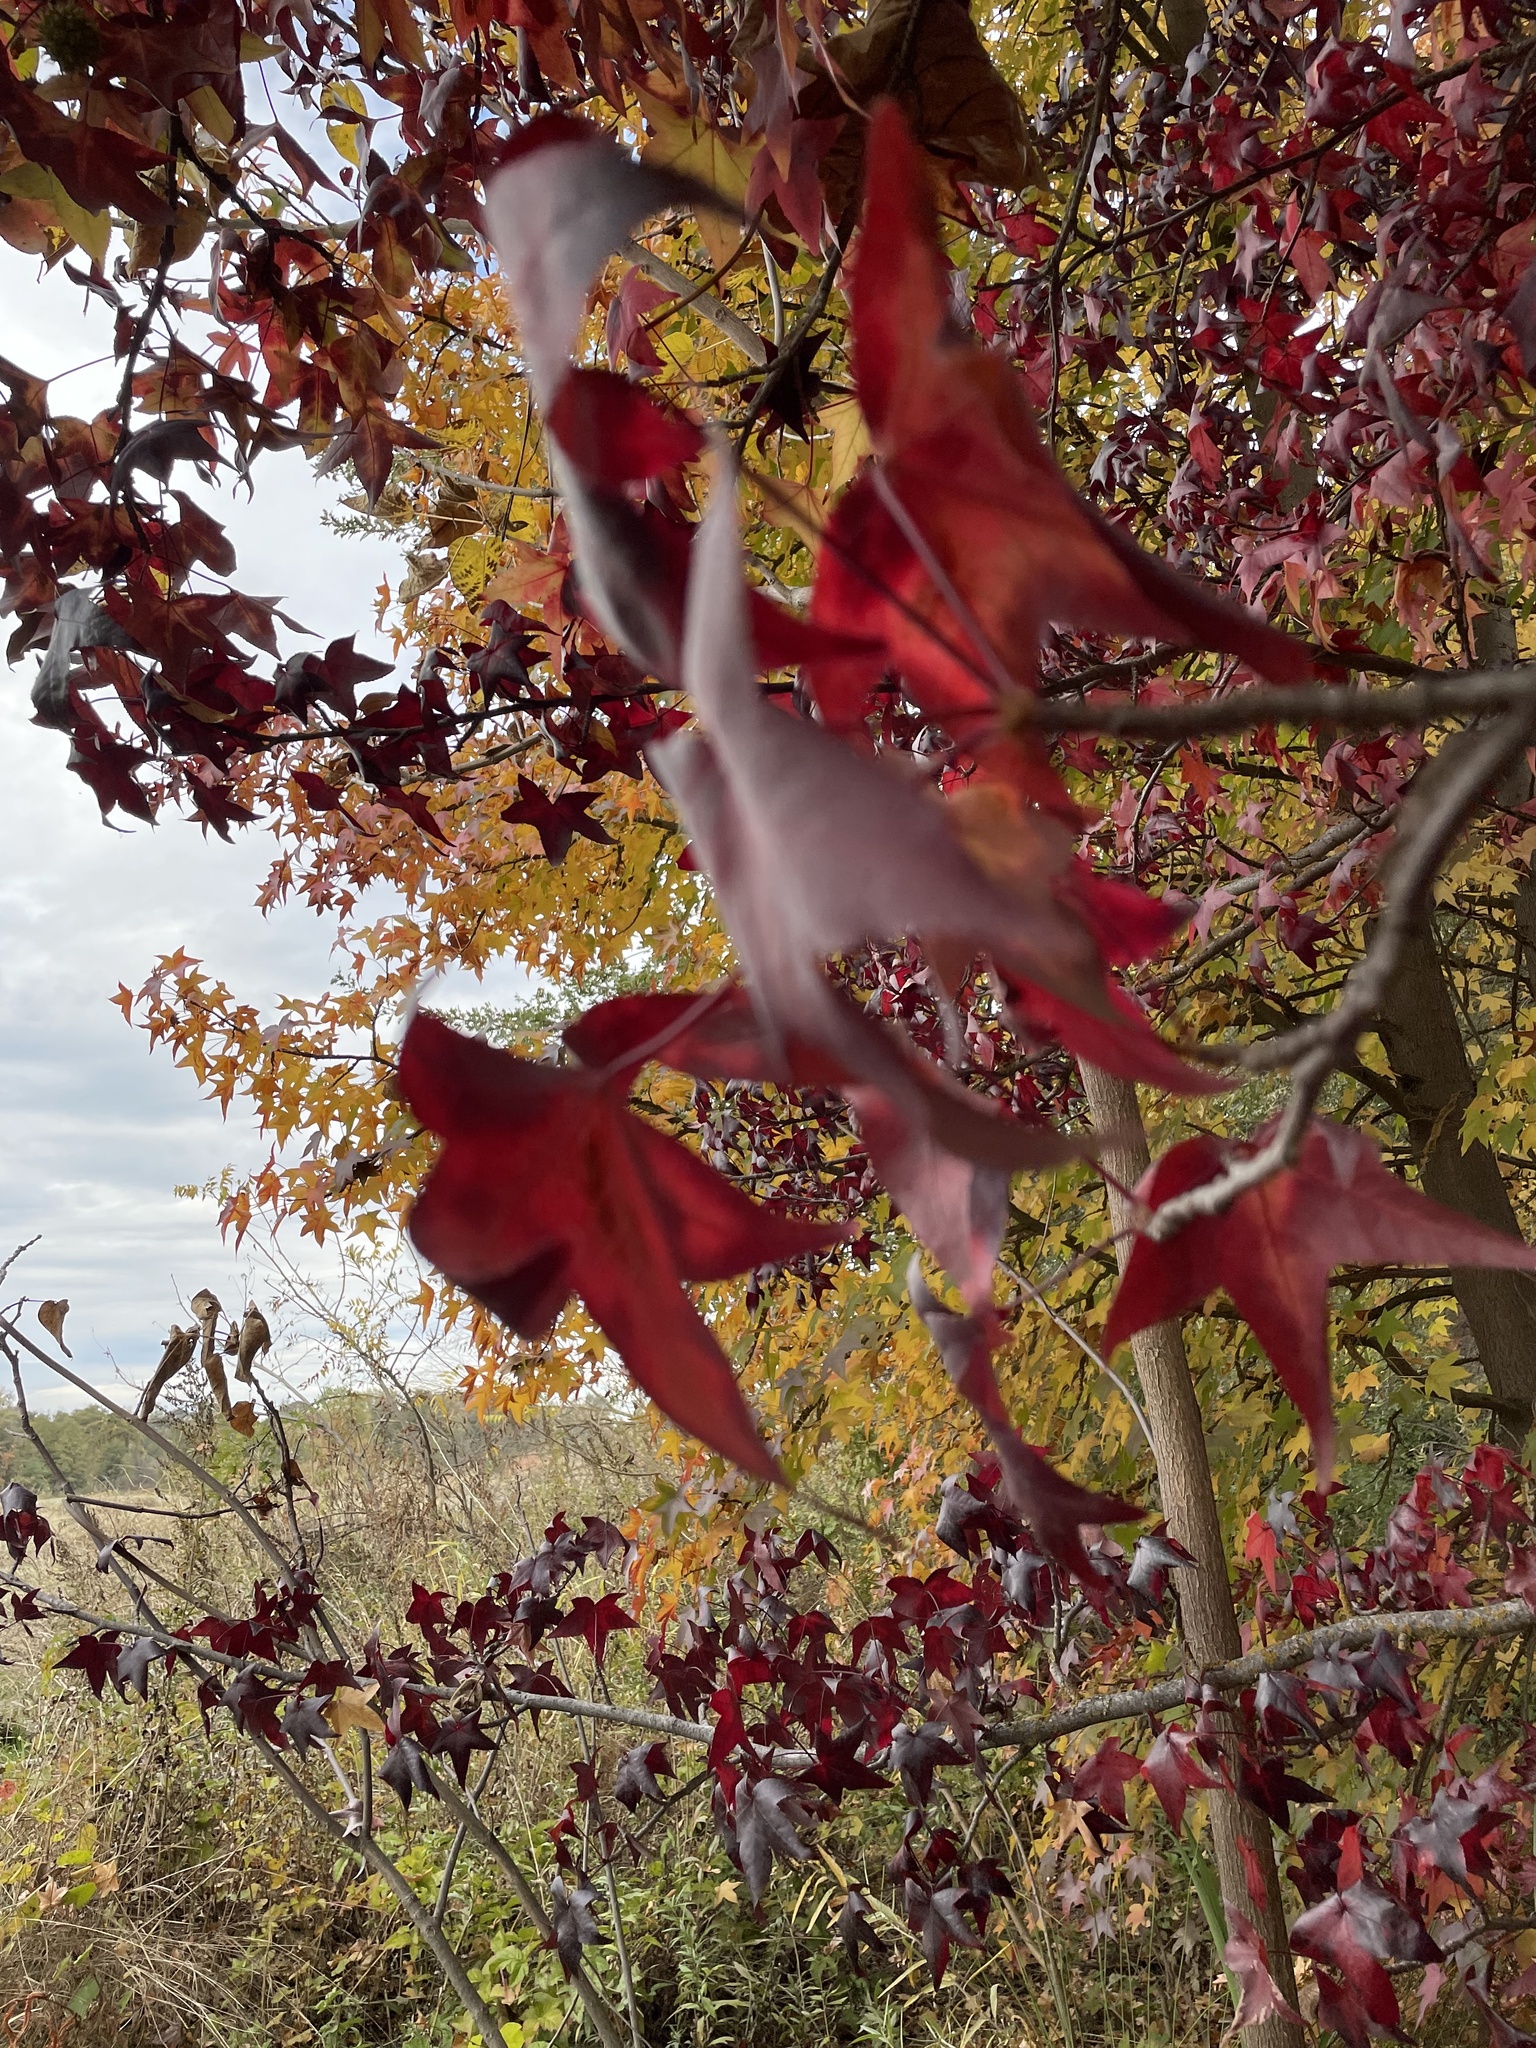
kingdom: Plantae
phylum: Tracheophyta
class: Magnoliopsida
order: Saxifragales
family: Altingiaceae
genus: Liquidambar
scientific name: Liquidambar styraciflua
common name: Sweet gum
